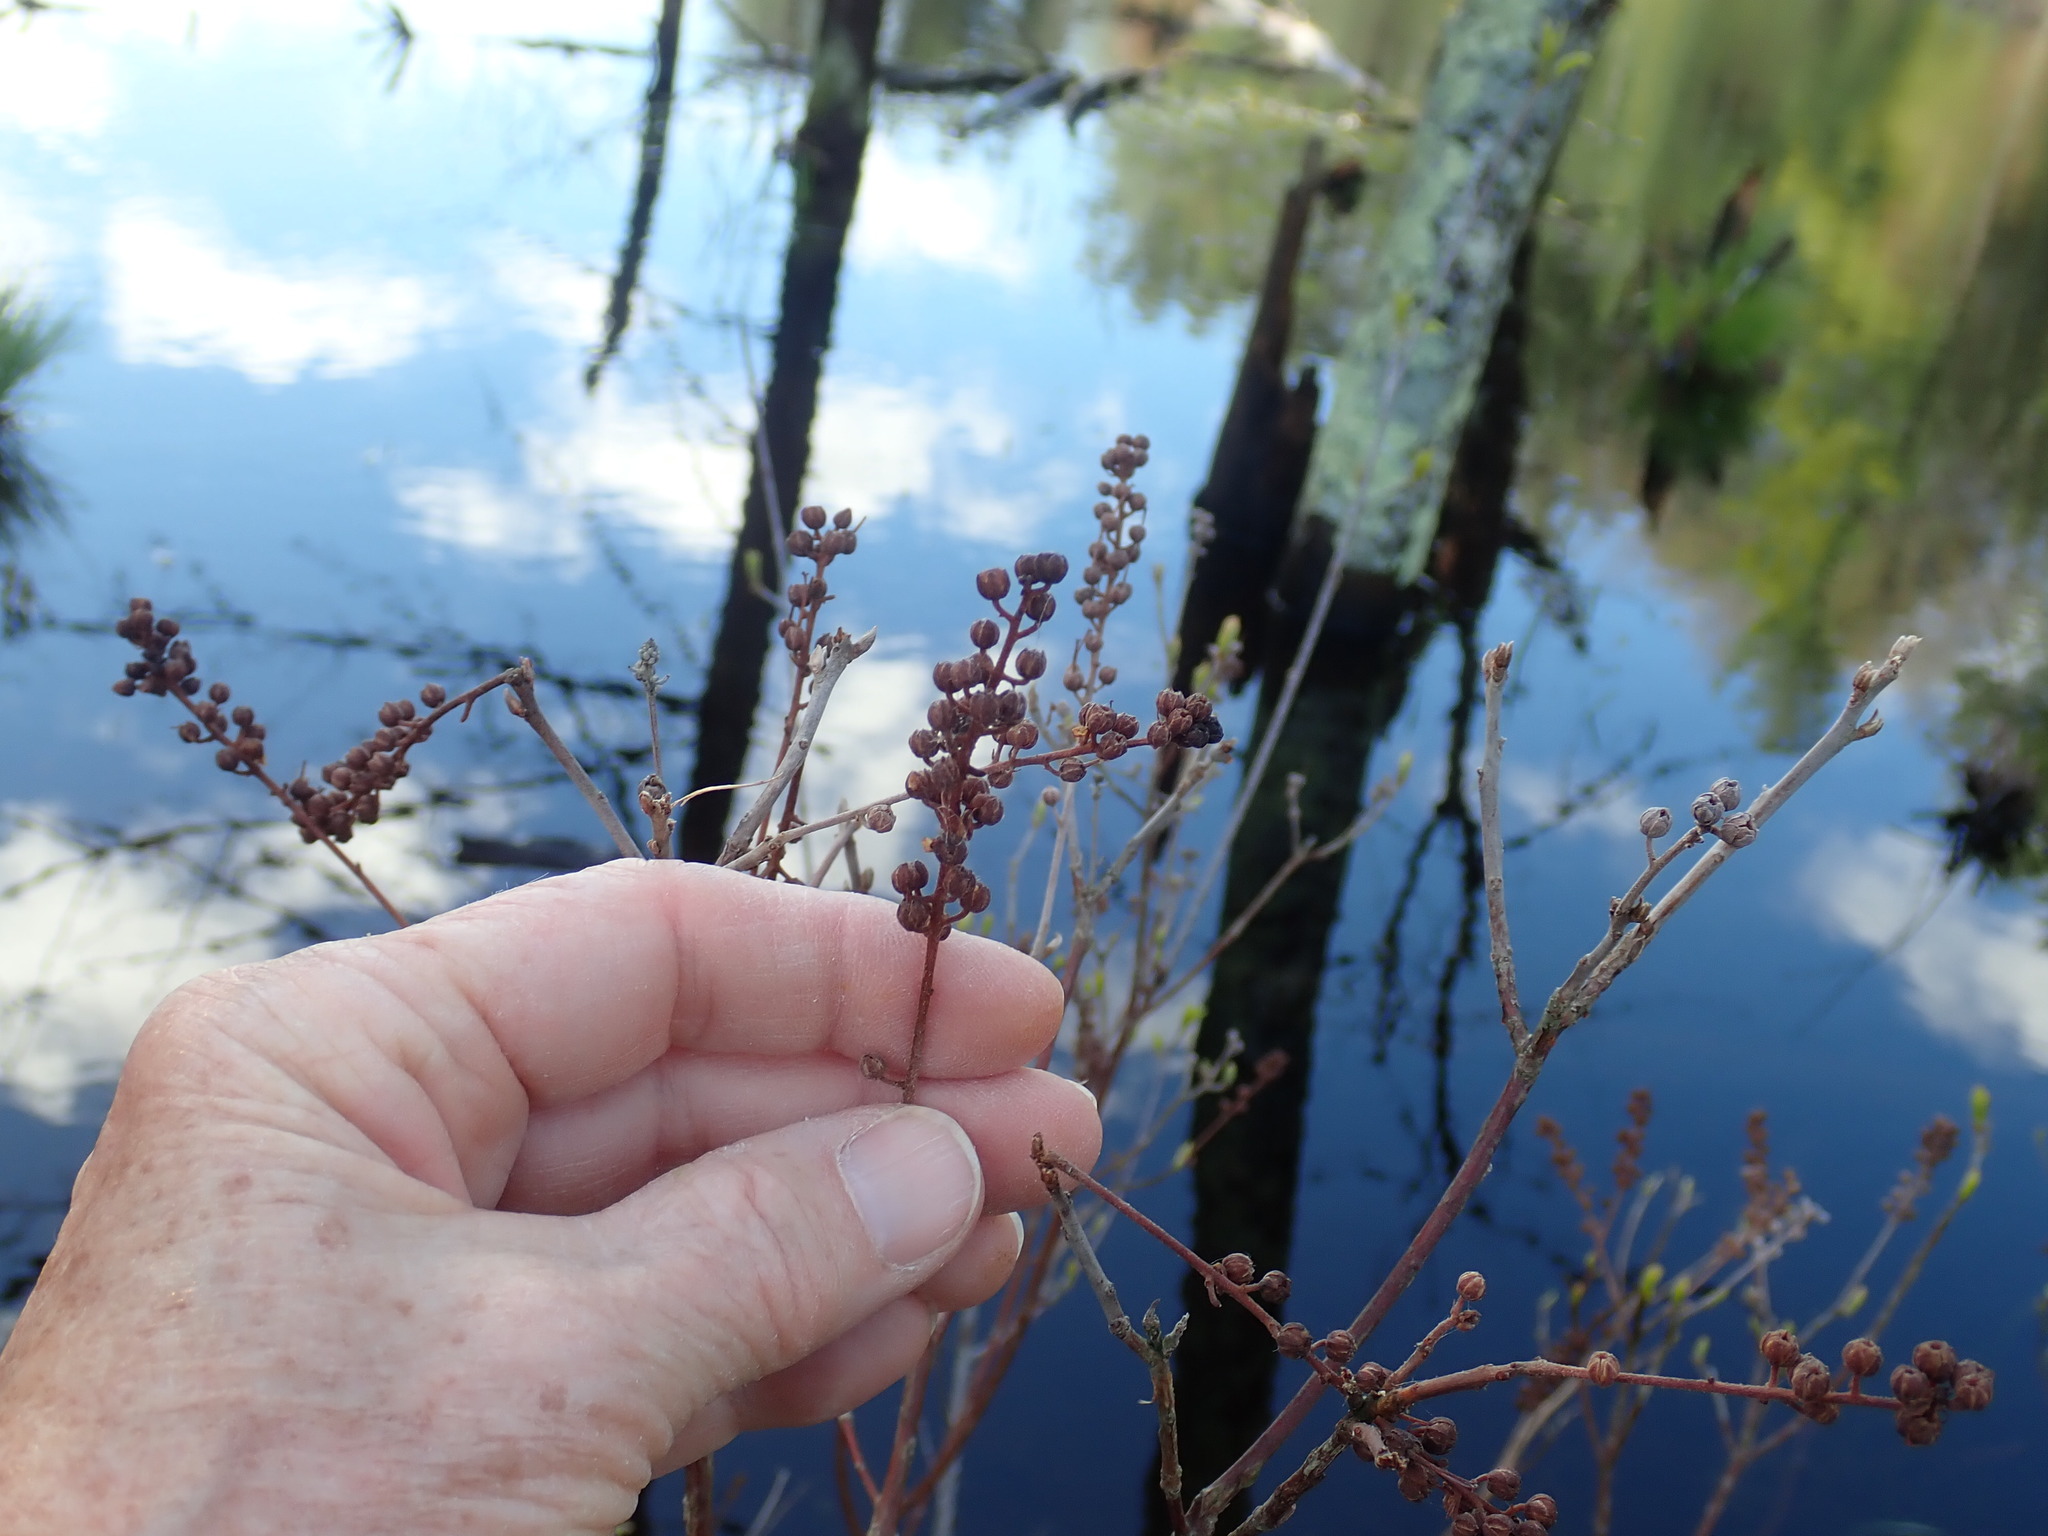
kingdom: Plantae
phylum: Tracheophyta
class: Magnoliopsida
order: Ericales
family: Clethraceae
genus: Clethra
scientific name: Clethra alnifolia
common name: Sweet pepperbush
